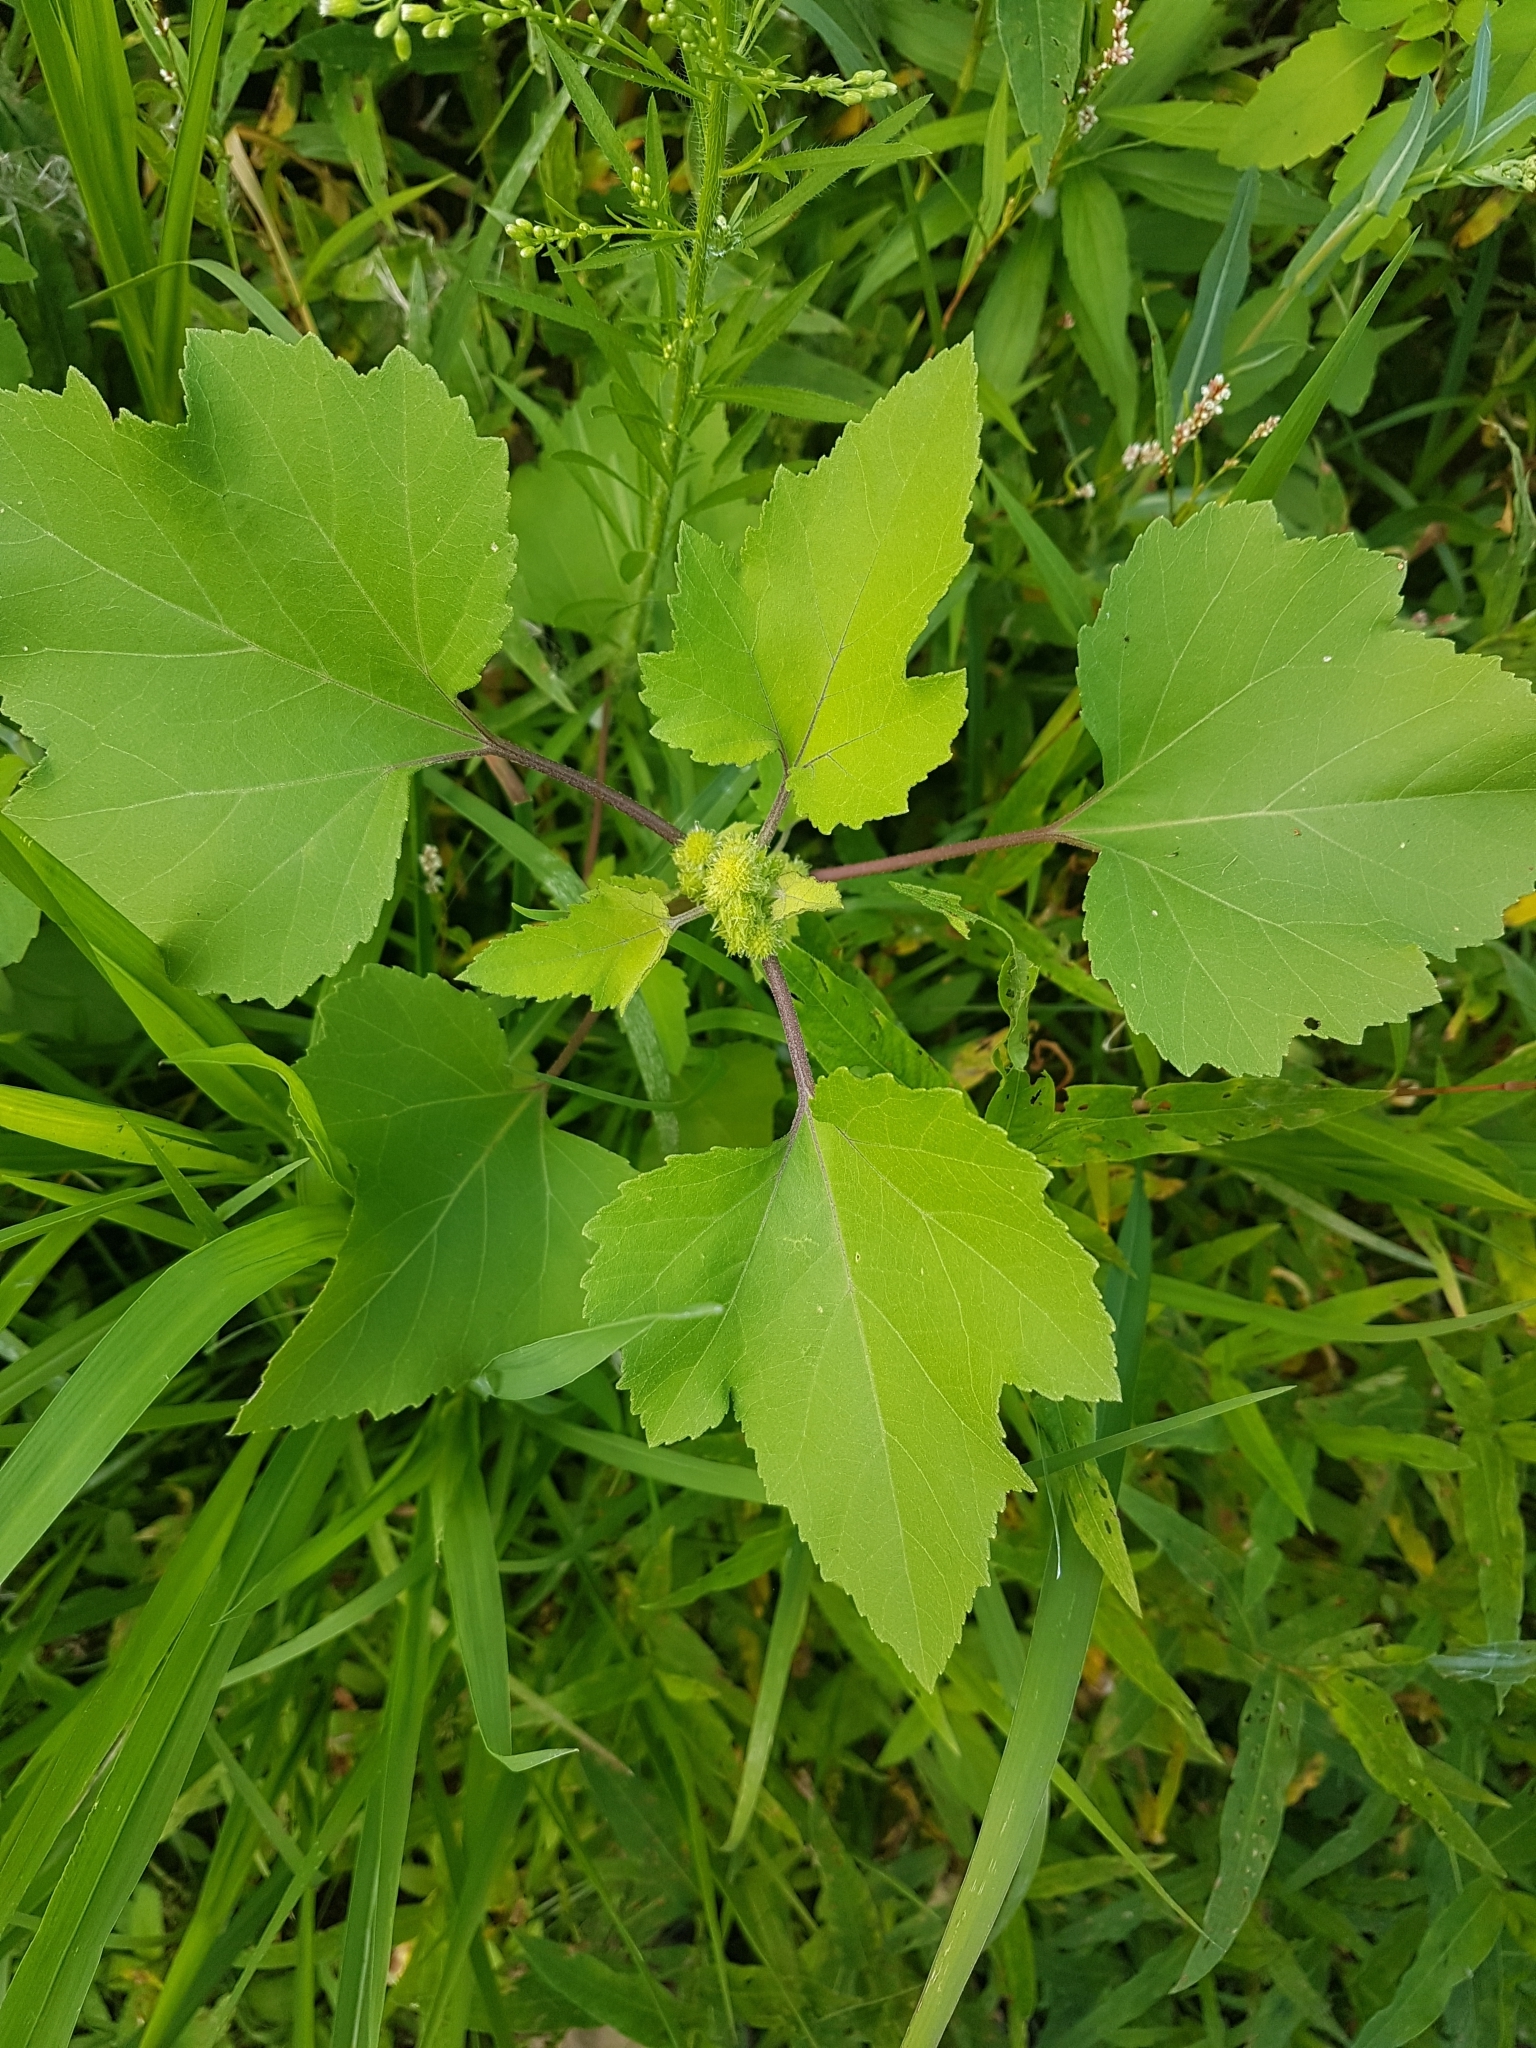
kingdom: Plantae
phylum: Tracheophyta
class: Magnoliopsida
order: Asterales
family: Asteraceae
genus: Xanthium
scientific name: Xanthium strumarium
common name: Rough cocklebur
